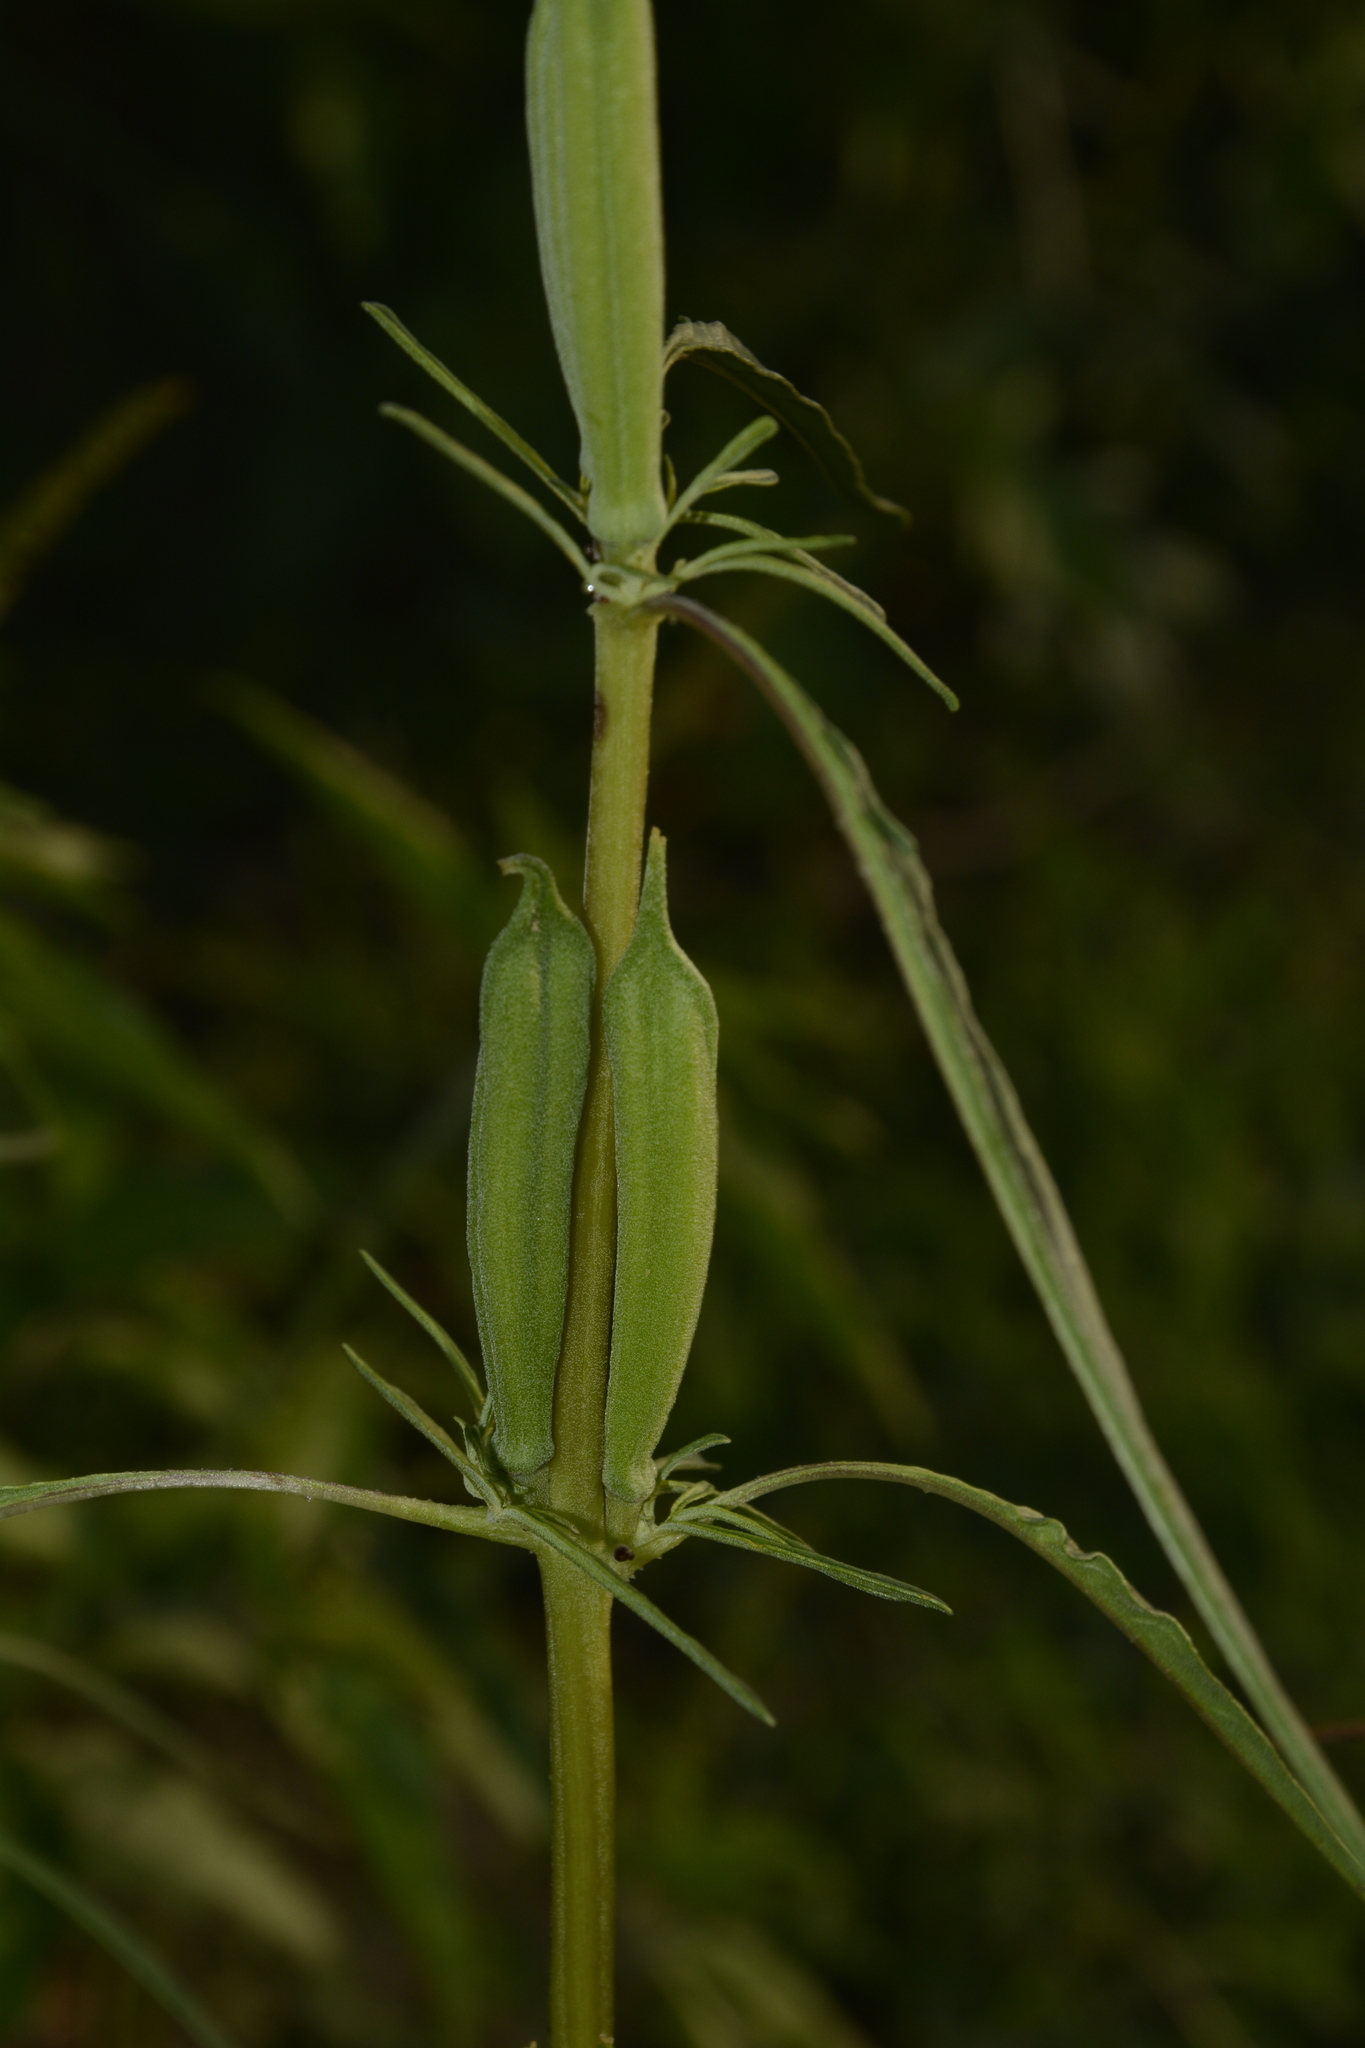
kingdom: Plantae
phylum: Tracheophyta
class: Magnoliopsida
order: Lamiales
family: Pedaliaceae
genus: Sesamum
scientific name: Sesamum alatum
